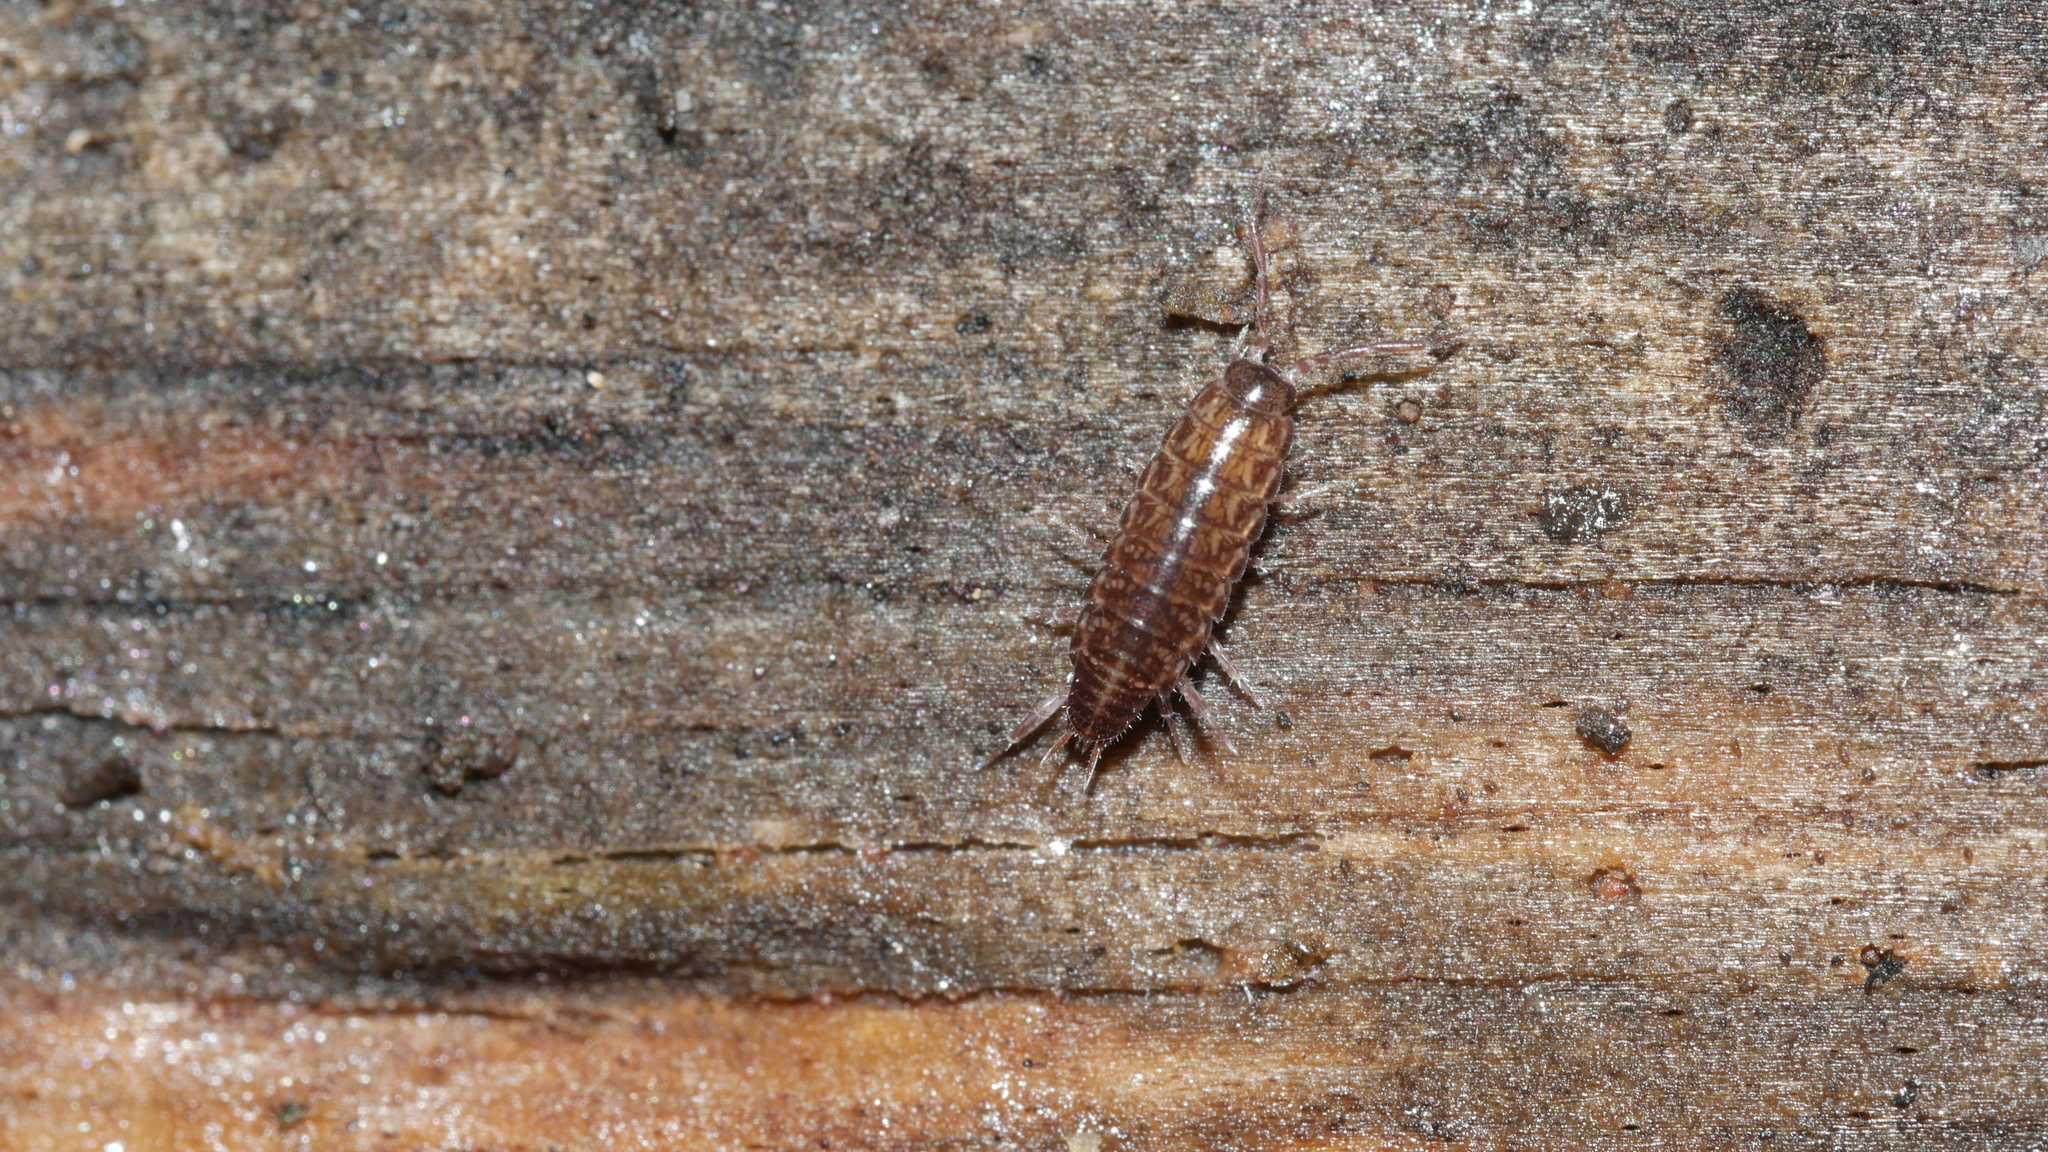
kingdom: Animalia
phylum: Arthropoda
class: Malacostraca
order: Isopoda
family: Philosciidae
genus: Chaetophiloscia
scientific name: Chaetophiloscia sicula
